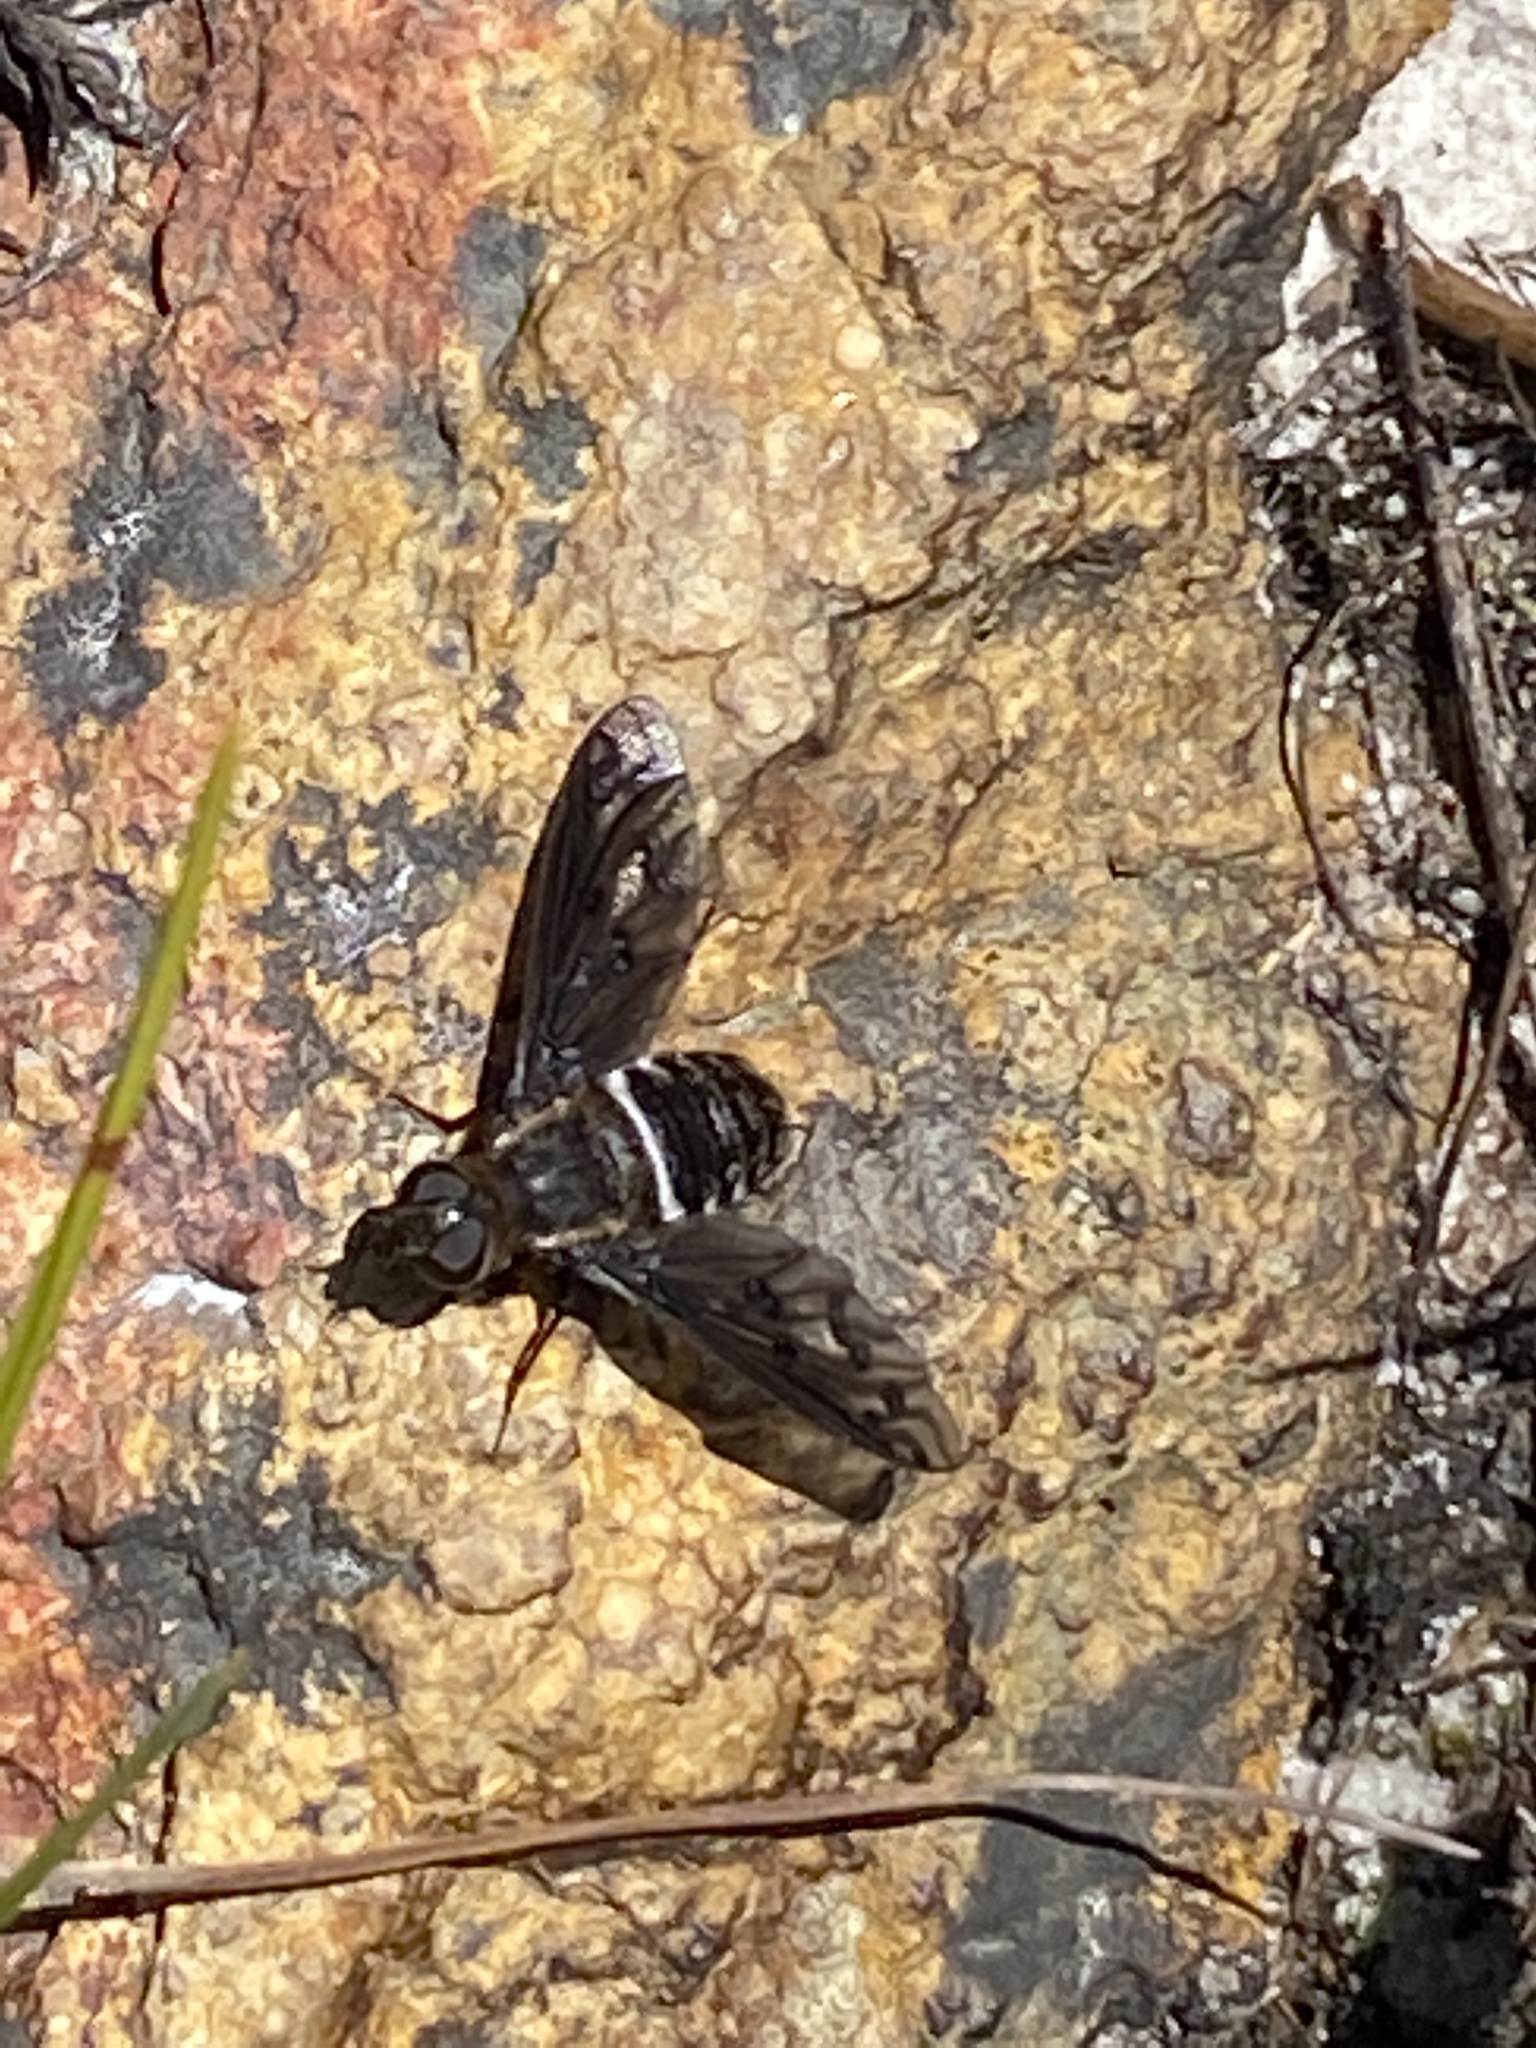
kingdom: Animalia
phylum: Arthropoda
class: Insecta
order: Diptera
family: Bombyliidae
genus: Heteralonia
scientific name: Heteralonia pentala
